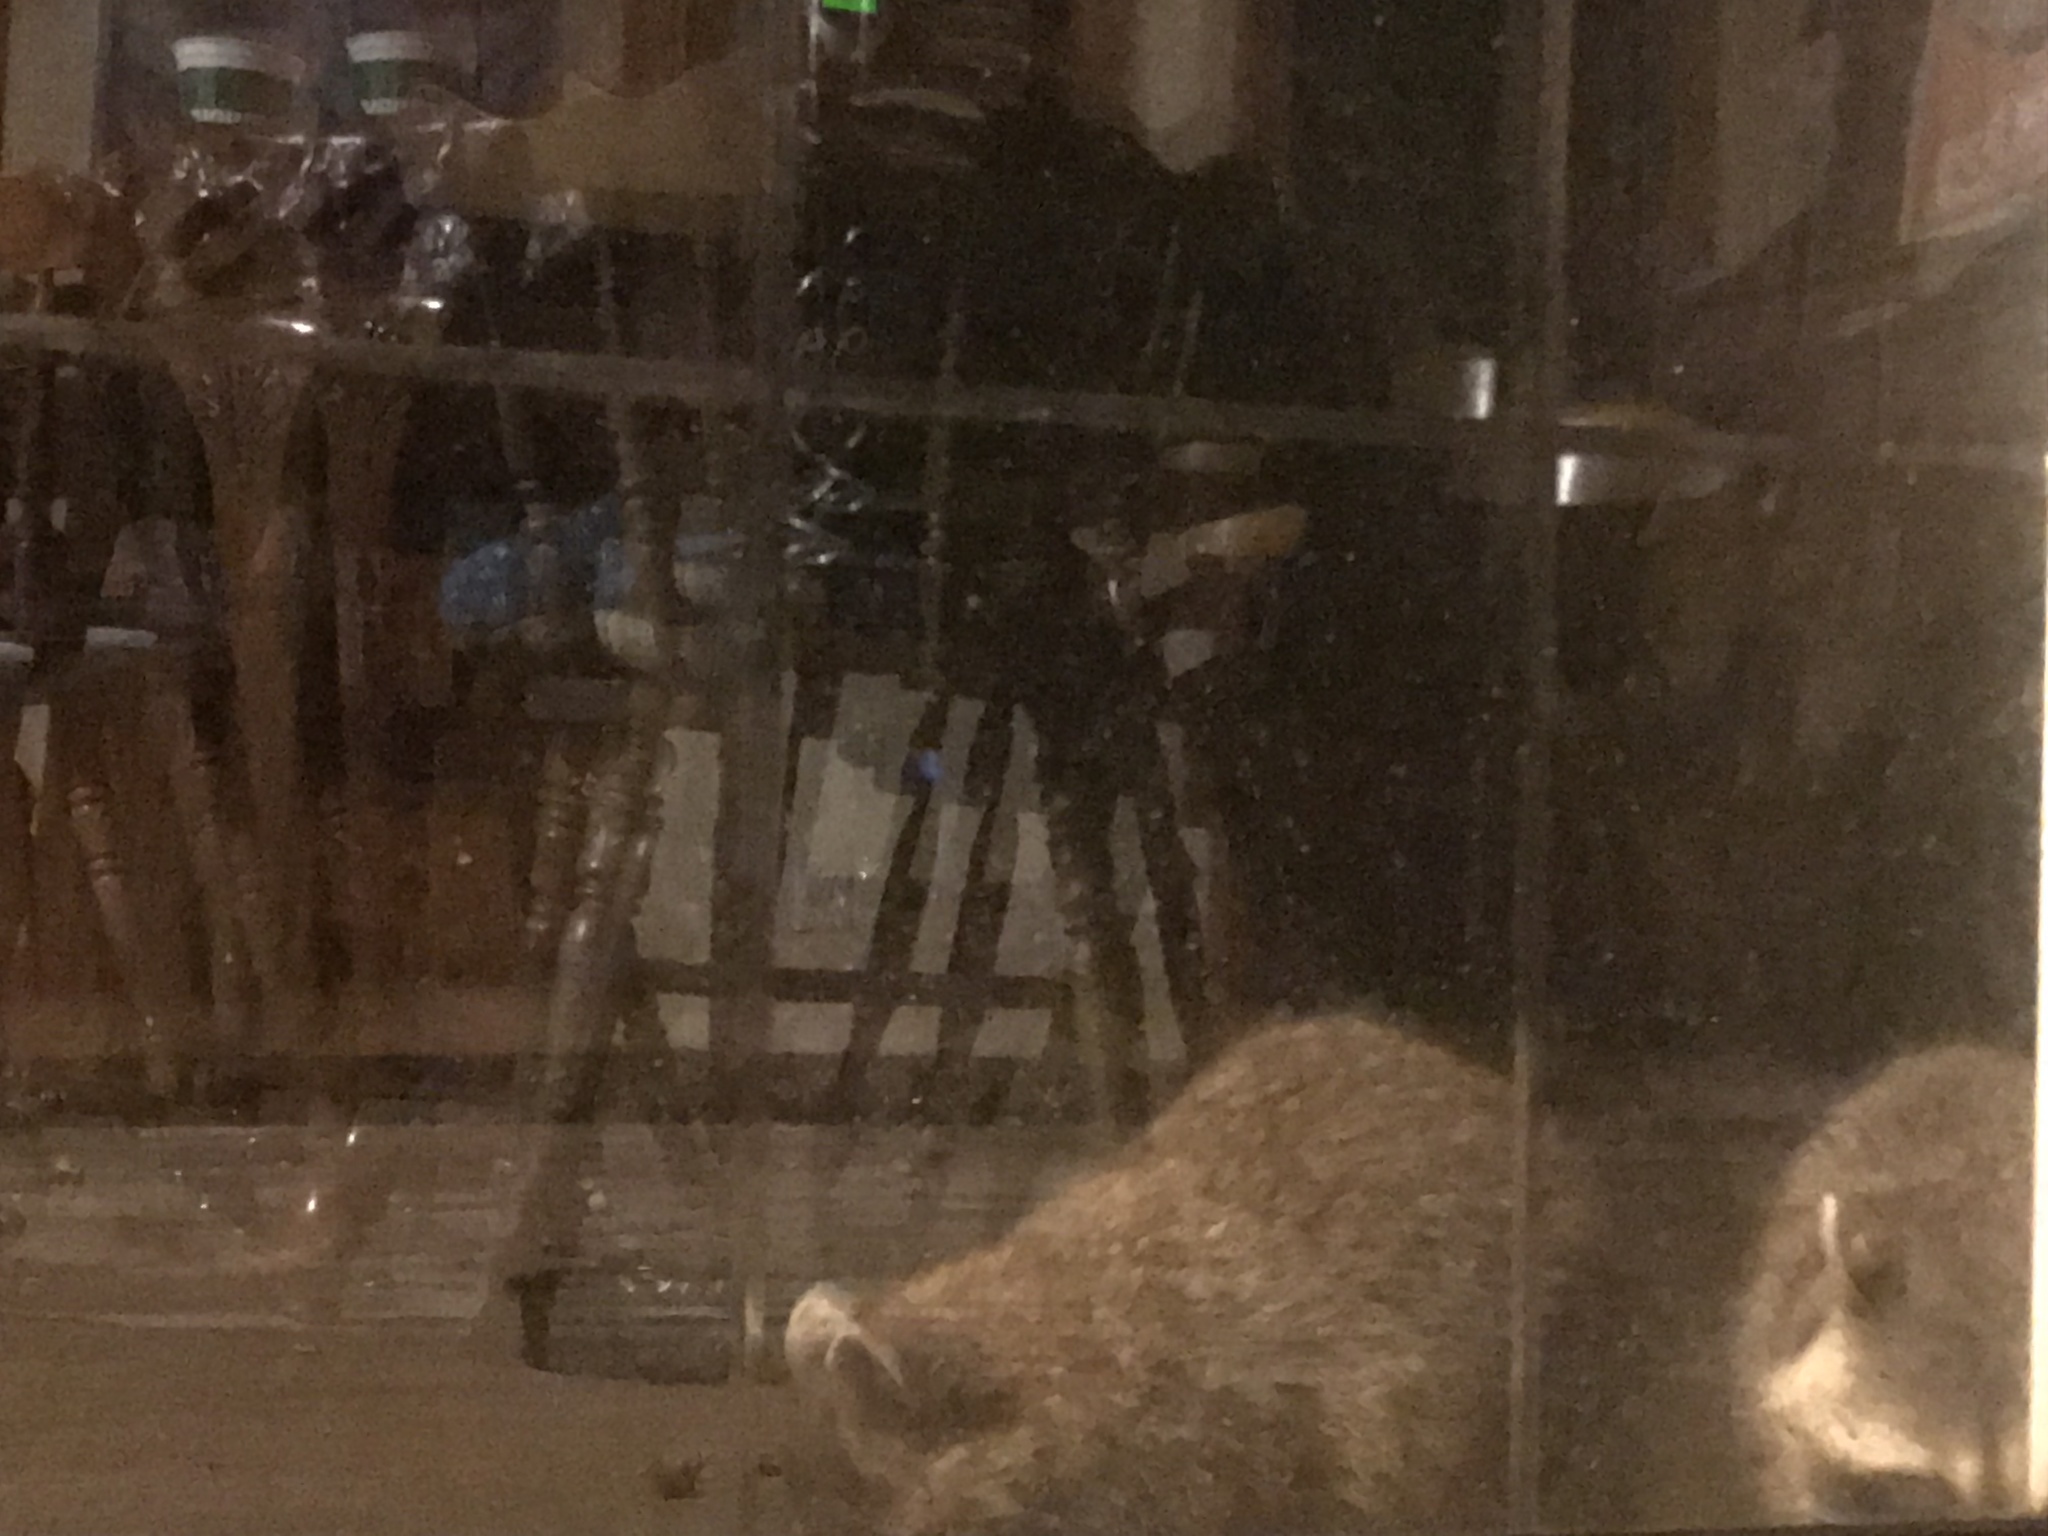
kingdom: Animalia
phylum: Chordata
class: Mammalia
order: Carnivora
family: Procyonidae
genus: Procyon
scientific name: Procyon lotor
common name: Raccoon
